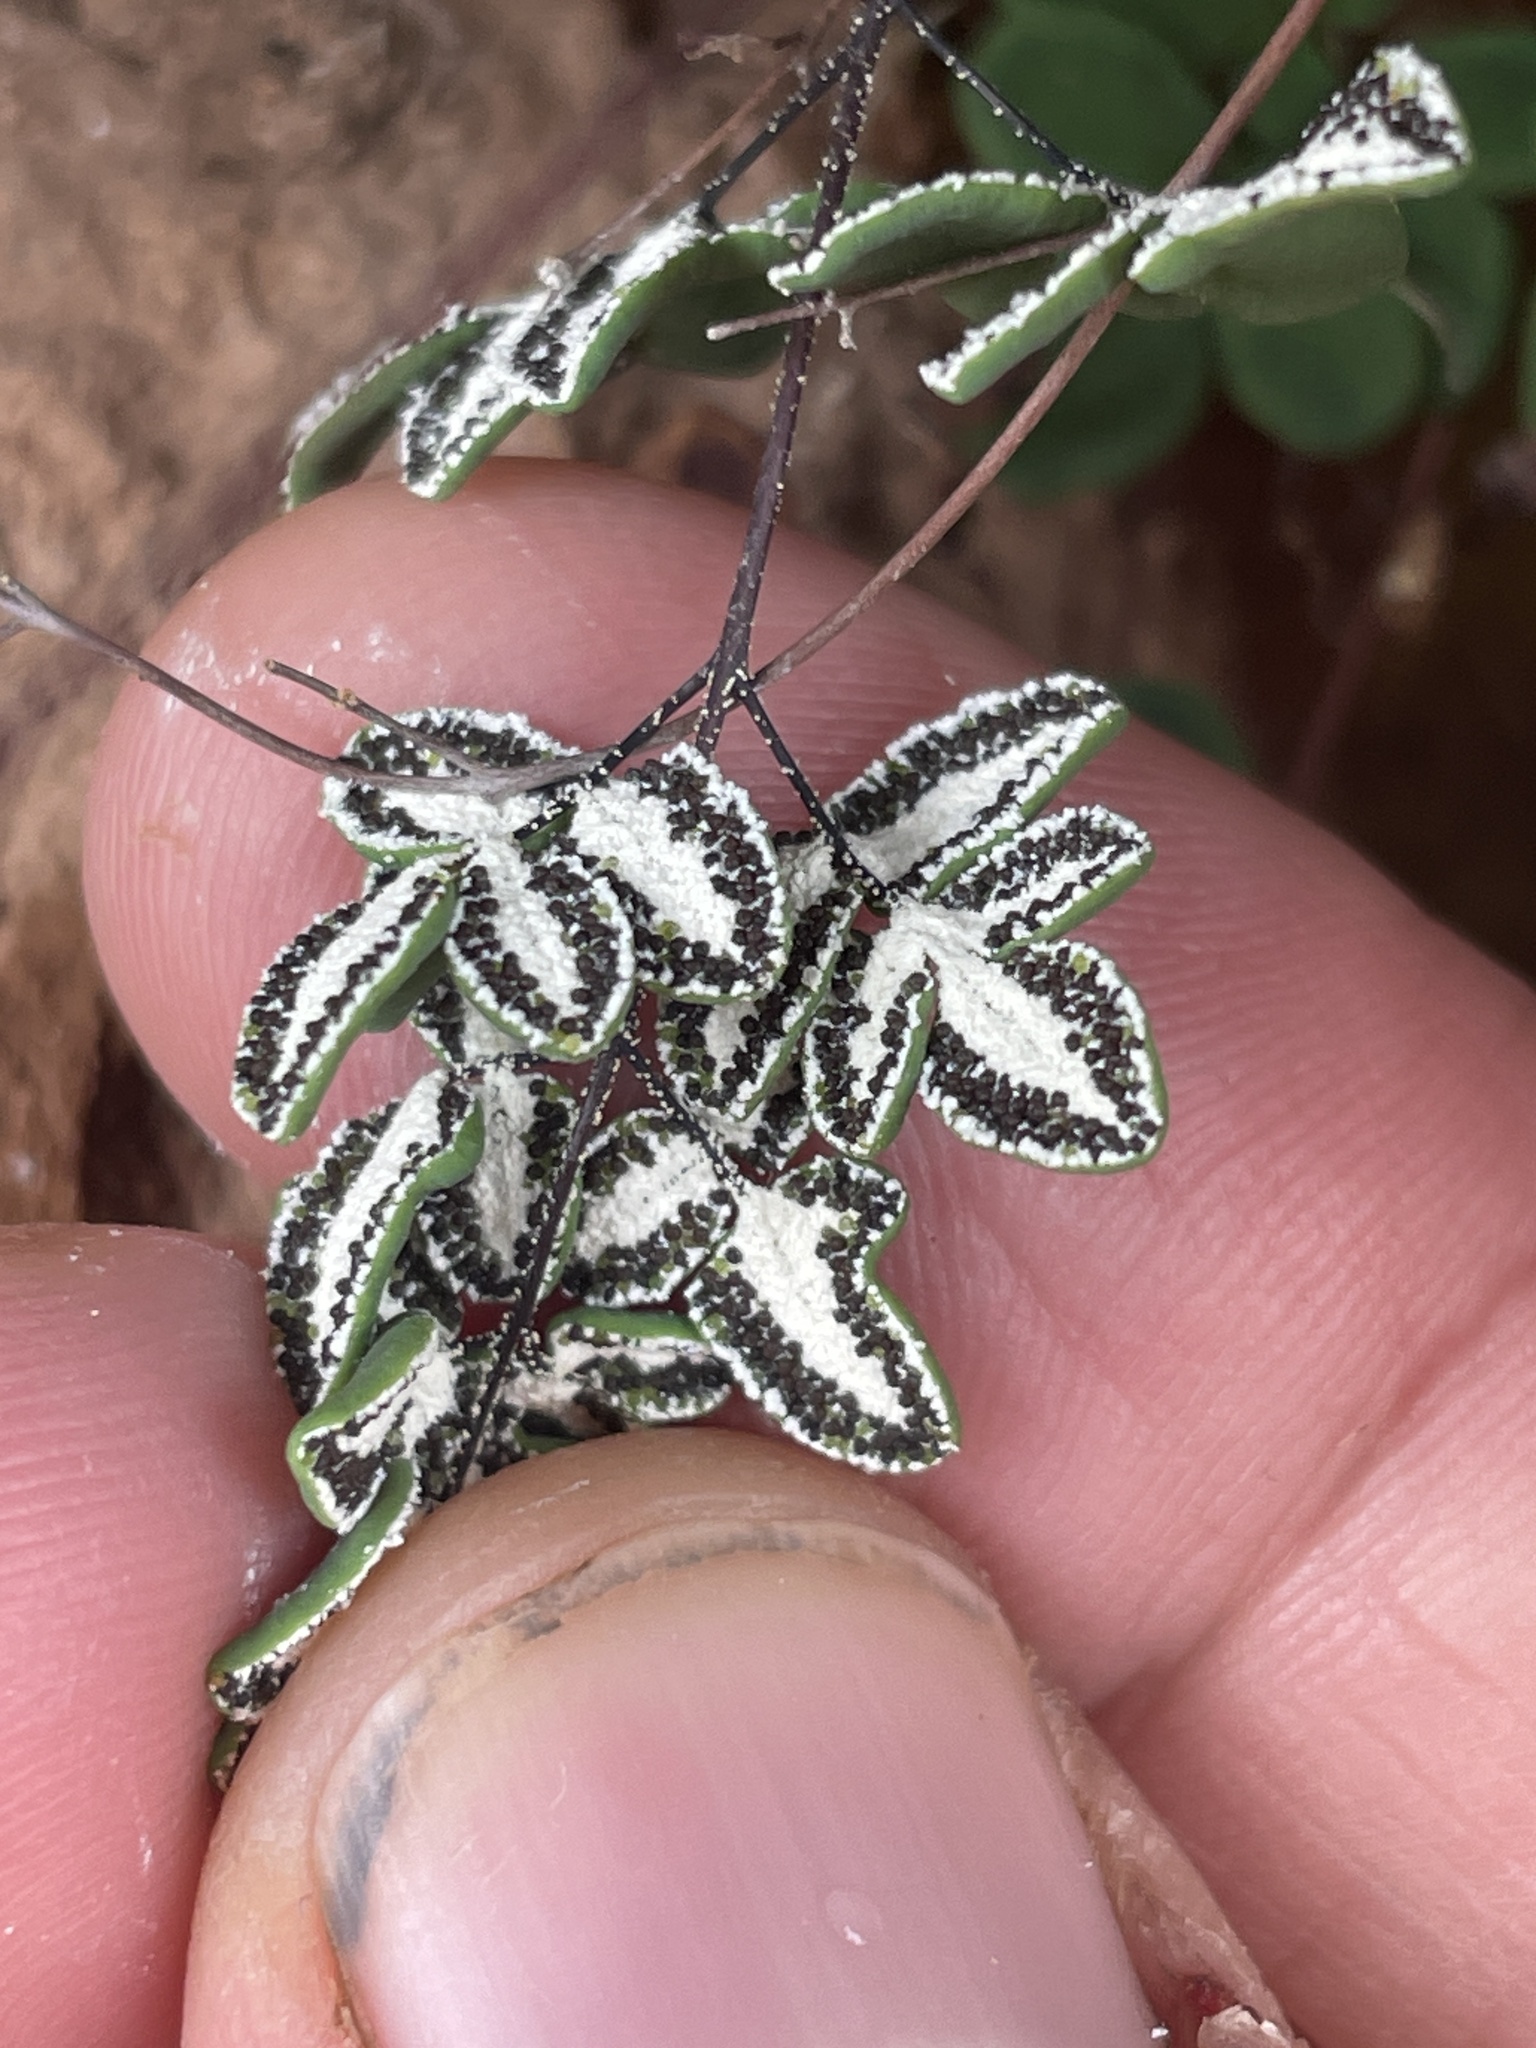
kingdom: Plantae
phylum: Tracheophyta
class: Polypodiopsida
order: Polypodiales
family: Pteridaceae
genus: Argyrochosma
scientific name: Argyrochosma nivea
